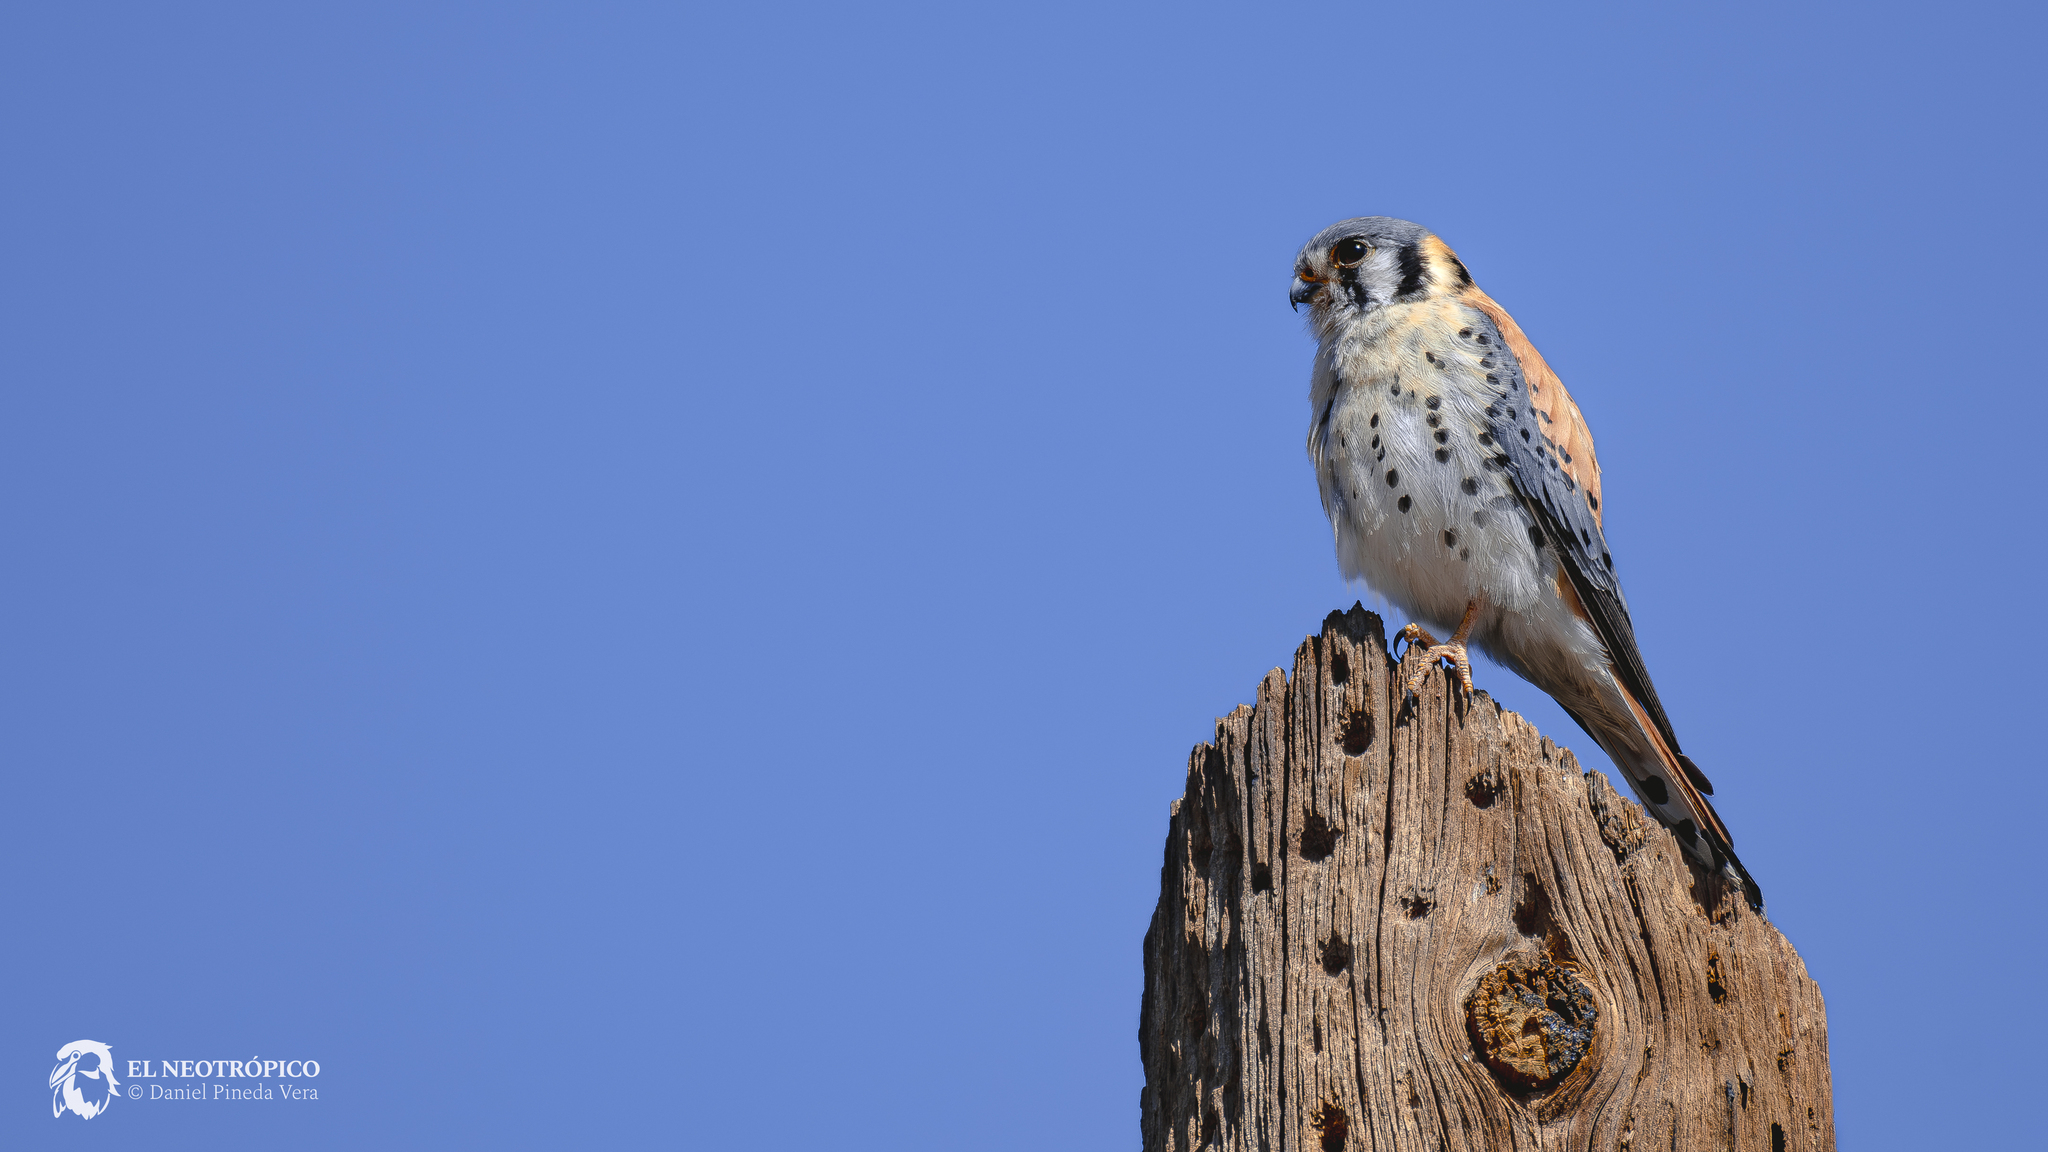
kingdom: Animalia
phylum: Chordata
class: Aves
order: Falconiformes
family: Falconidae
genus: Falco
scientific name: Falco sparverius
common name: American kestrel
